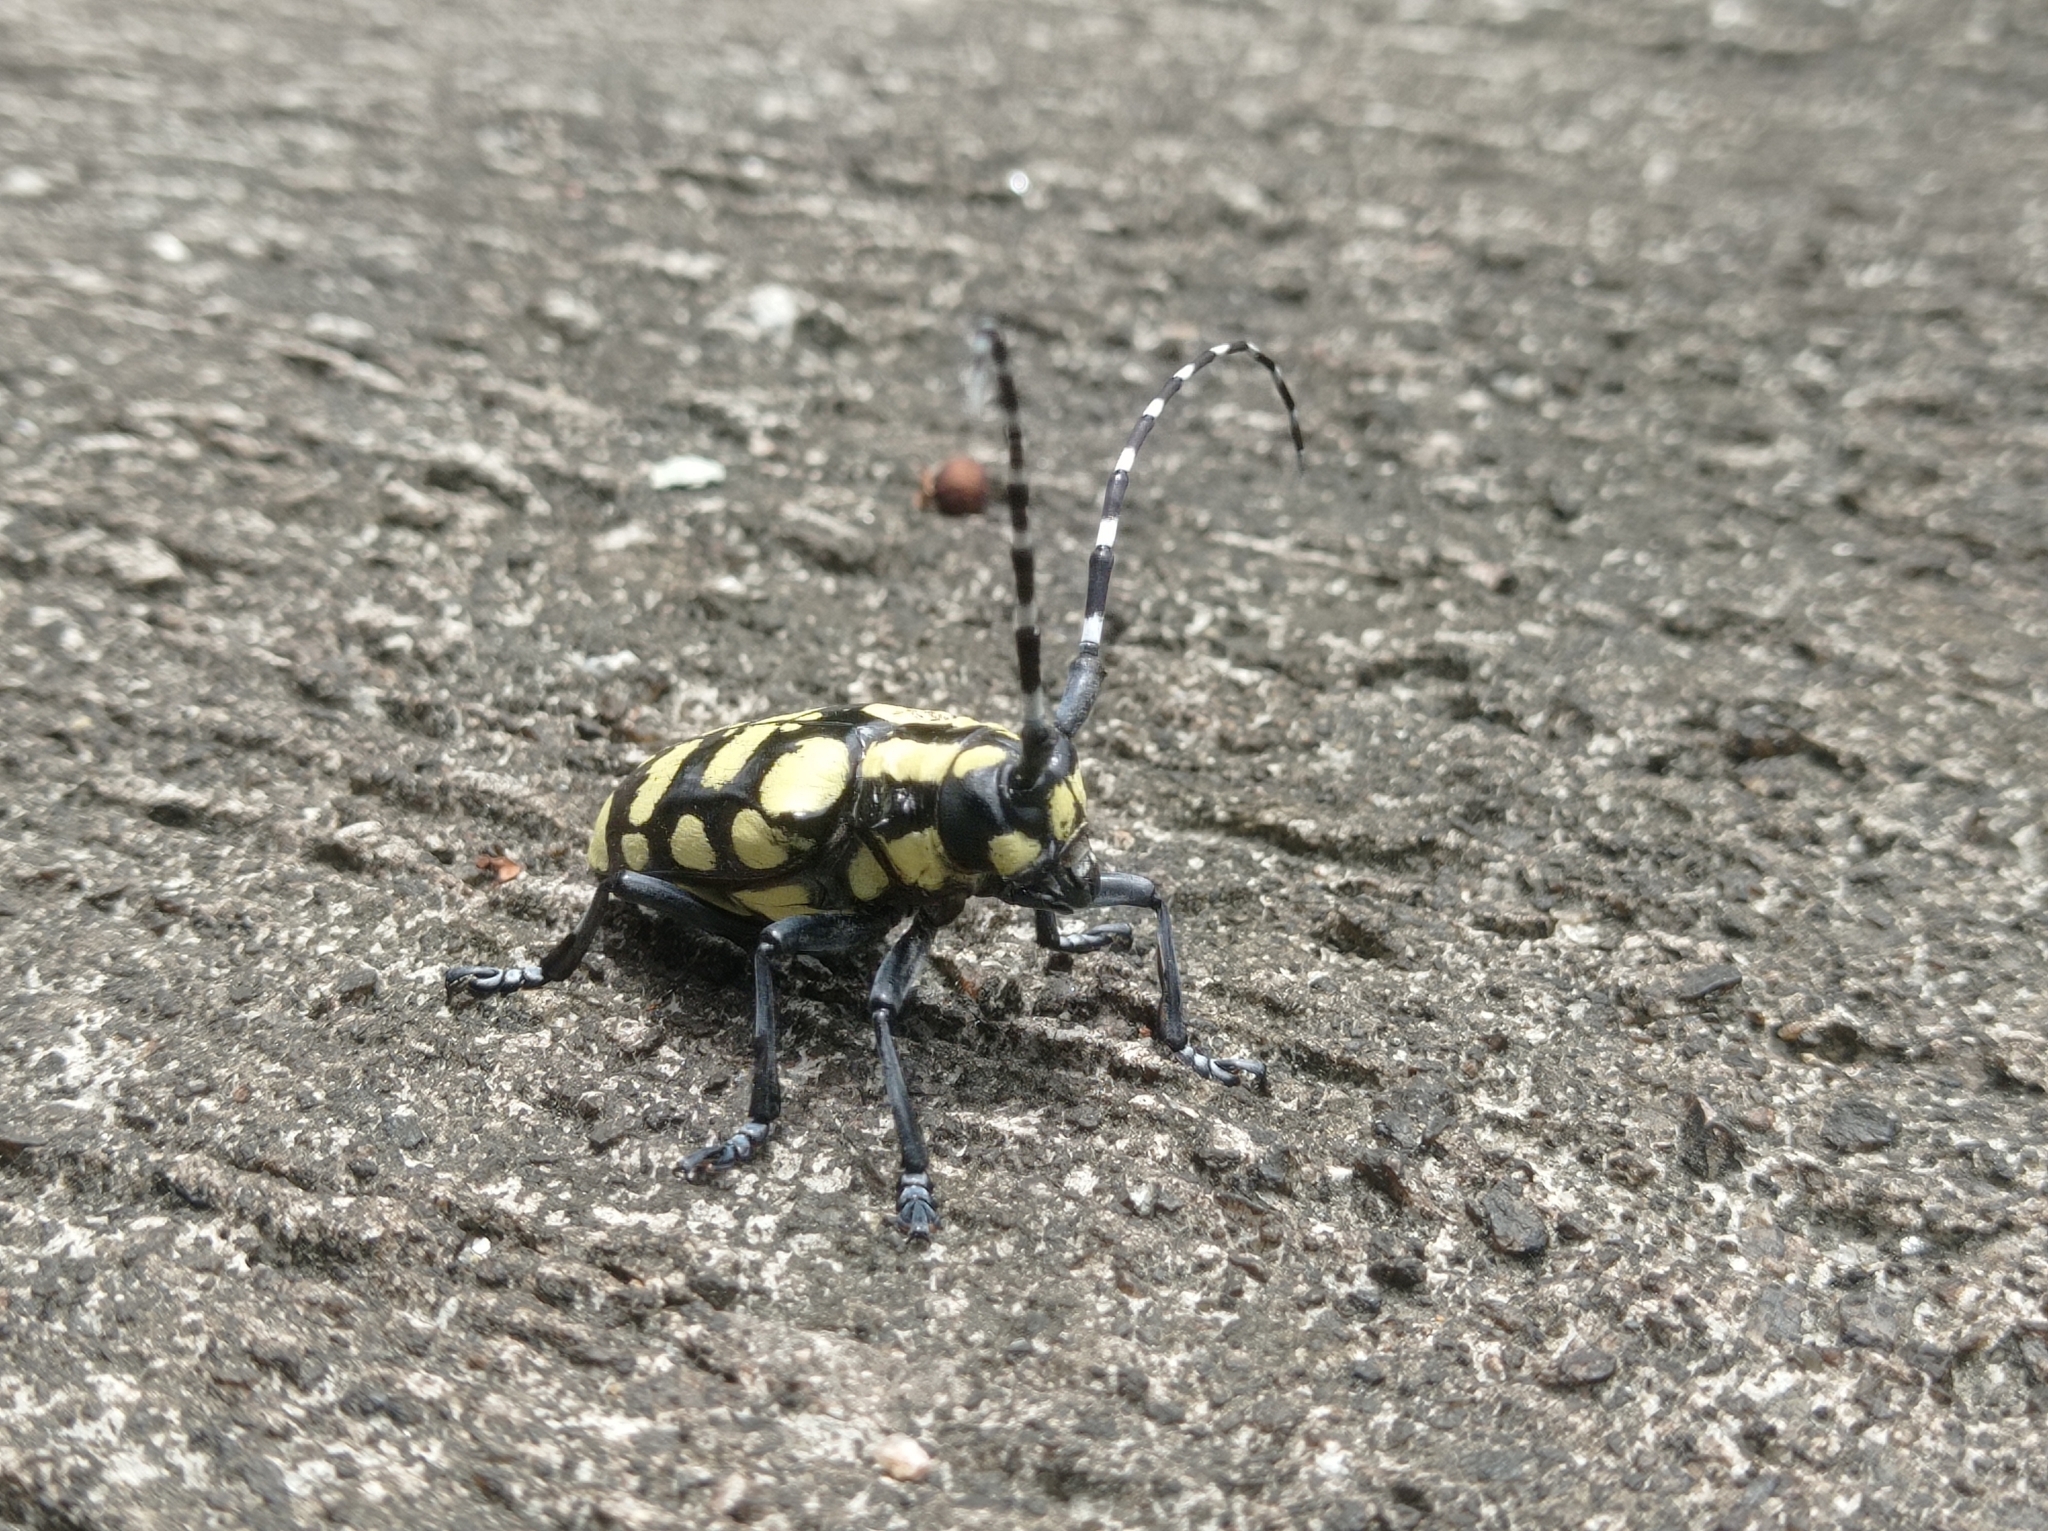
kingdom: Animalia
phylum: Arthropoda
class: Insecta
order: Coleoptera
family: Cerambycidae
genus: Anoplophora
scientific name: Anoplophora horsfieldii
